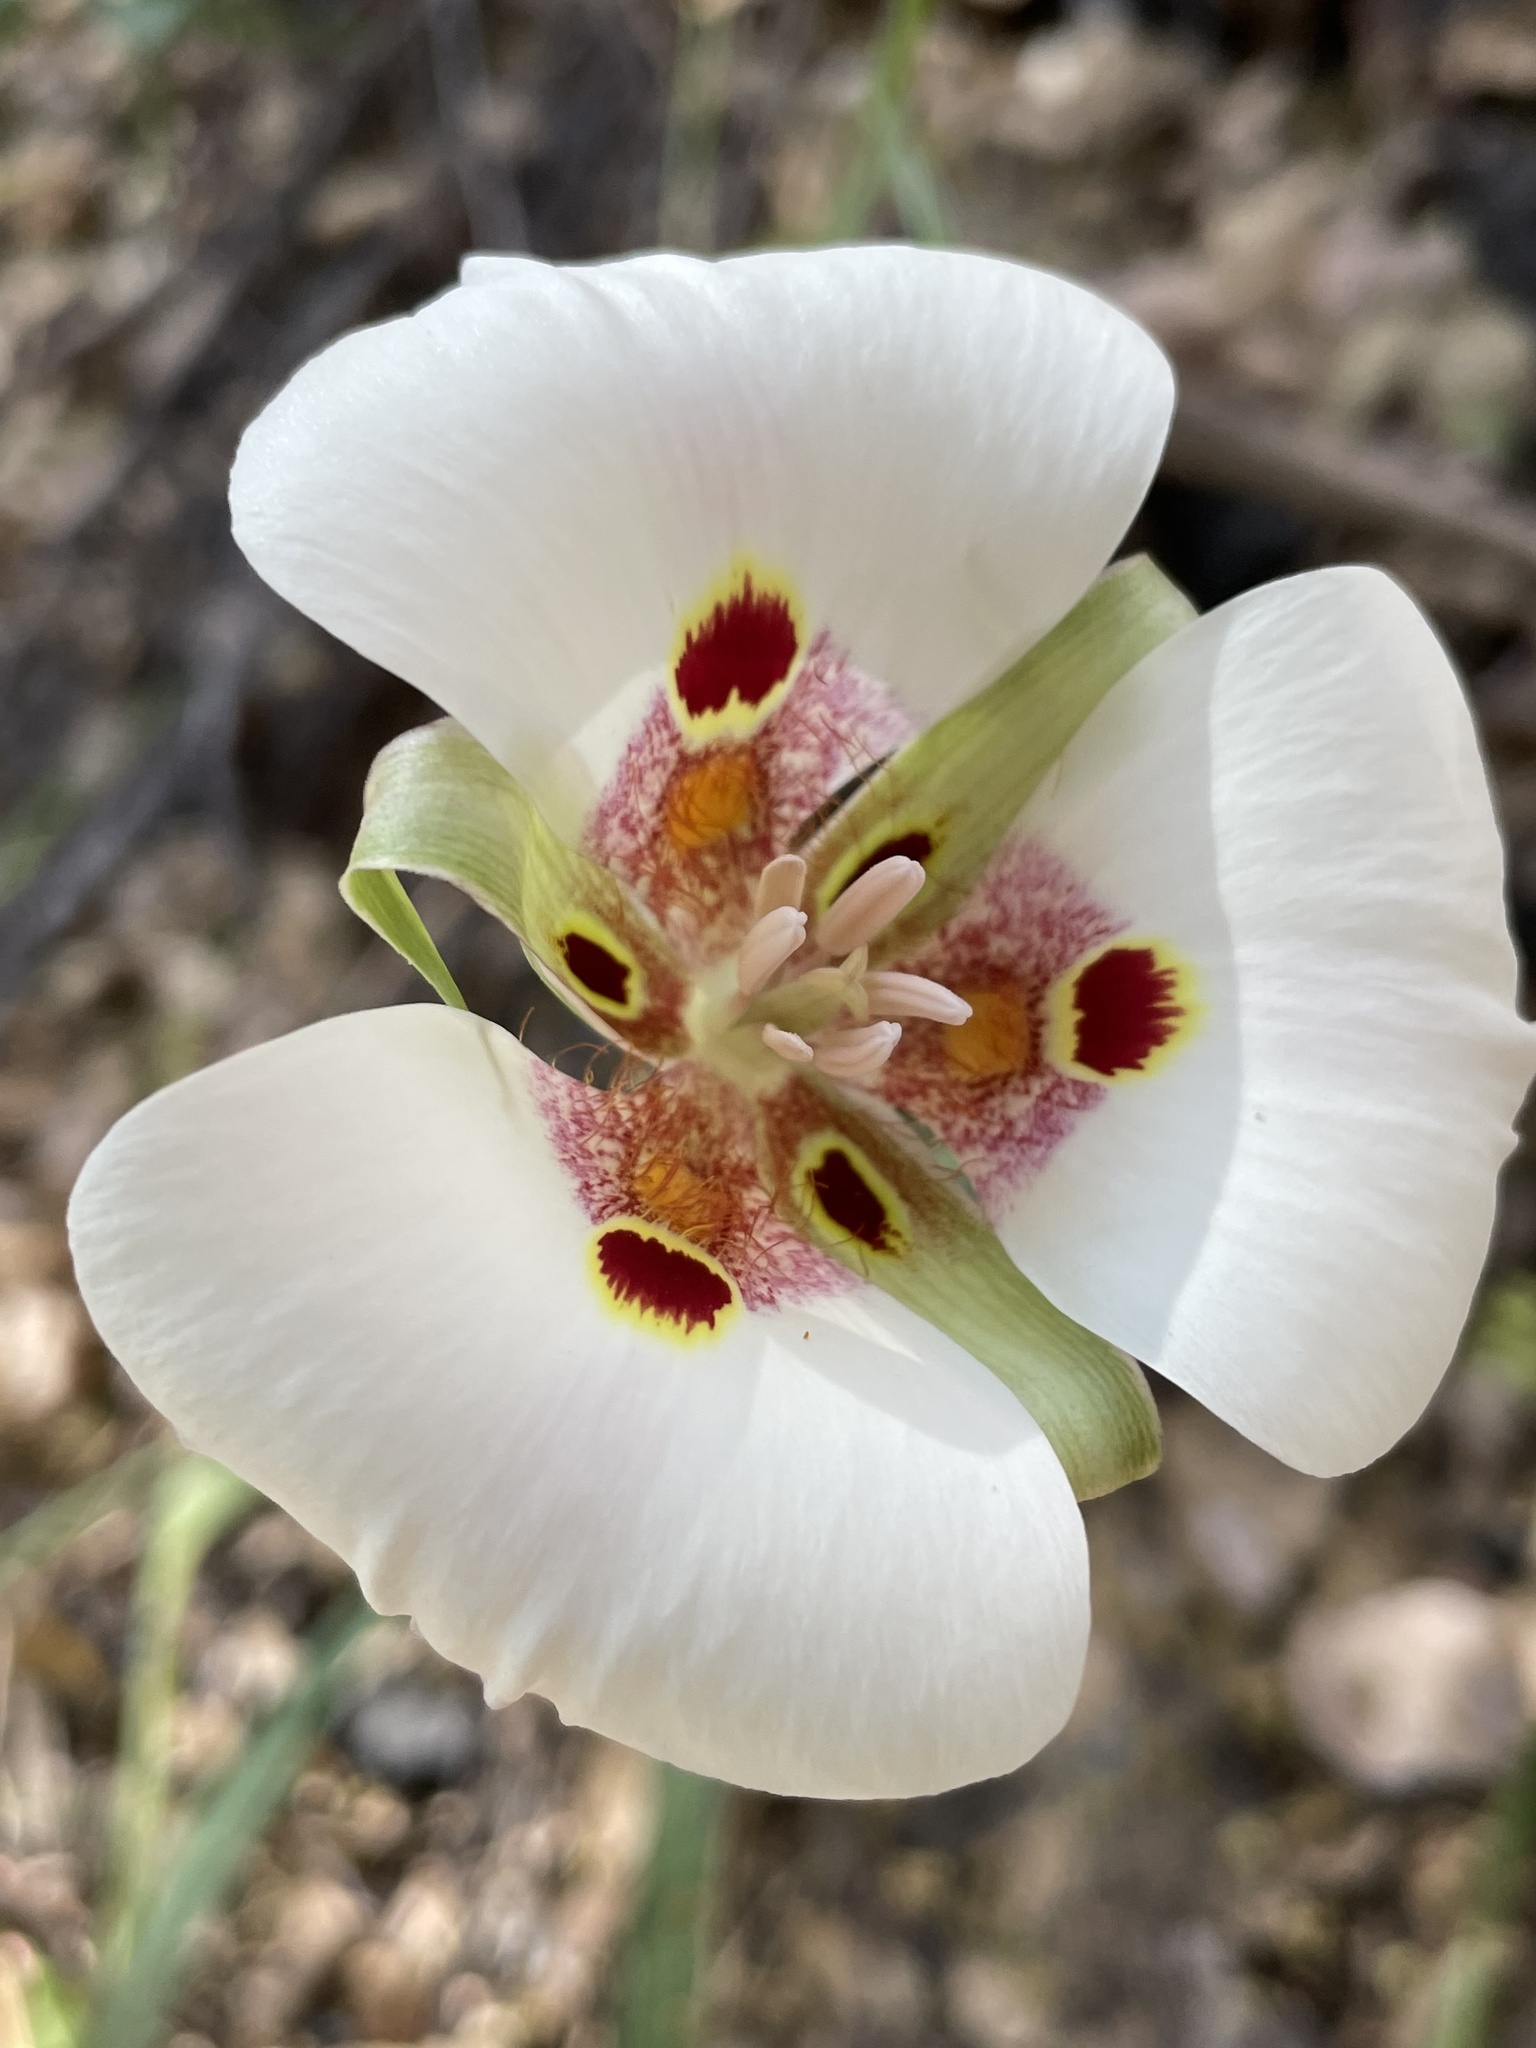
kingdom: Plantae
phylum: Tracheophyta
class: Liliopsida
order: Liliales
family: Liliaceae
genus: Calochortus
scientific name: Calochortus venustus
